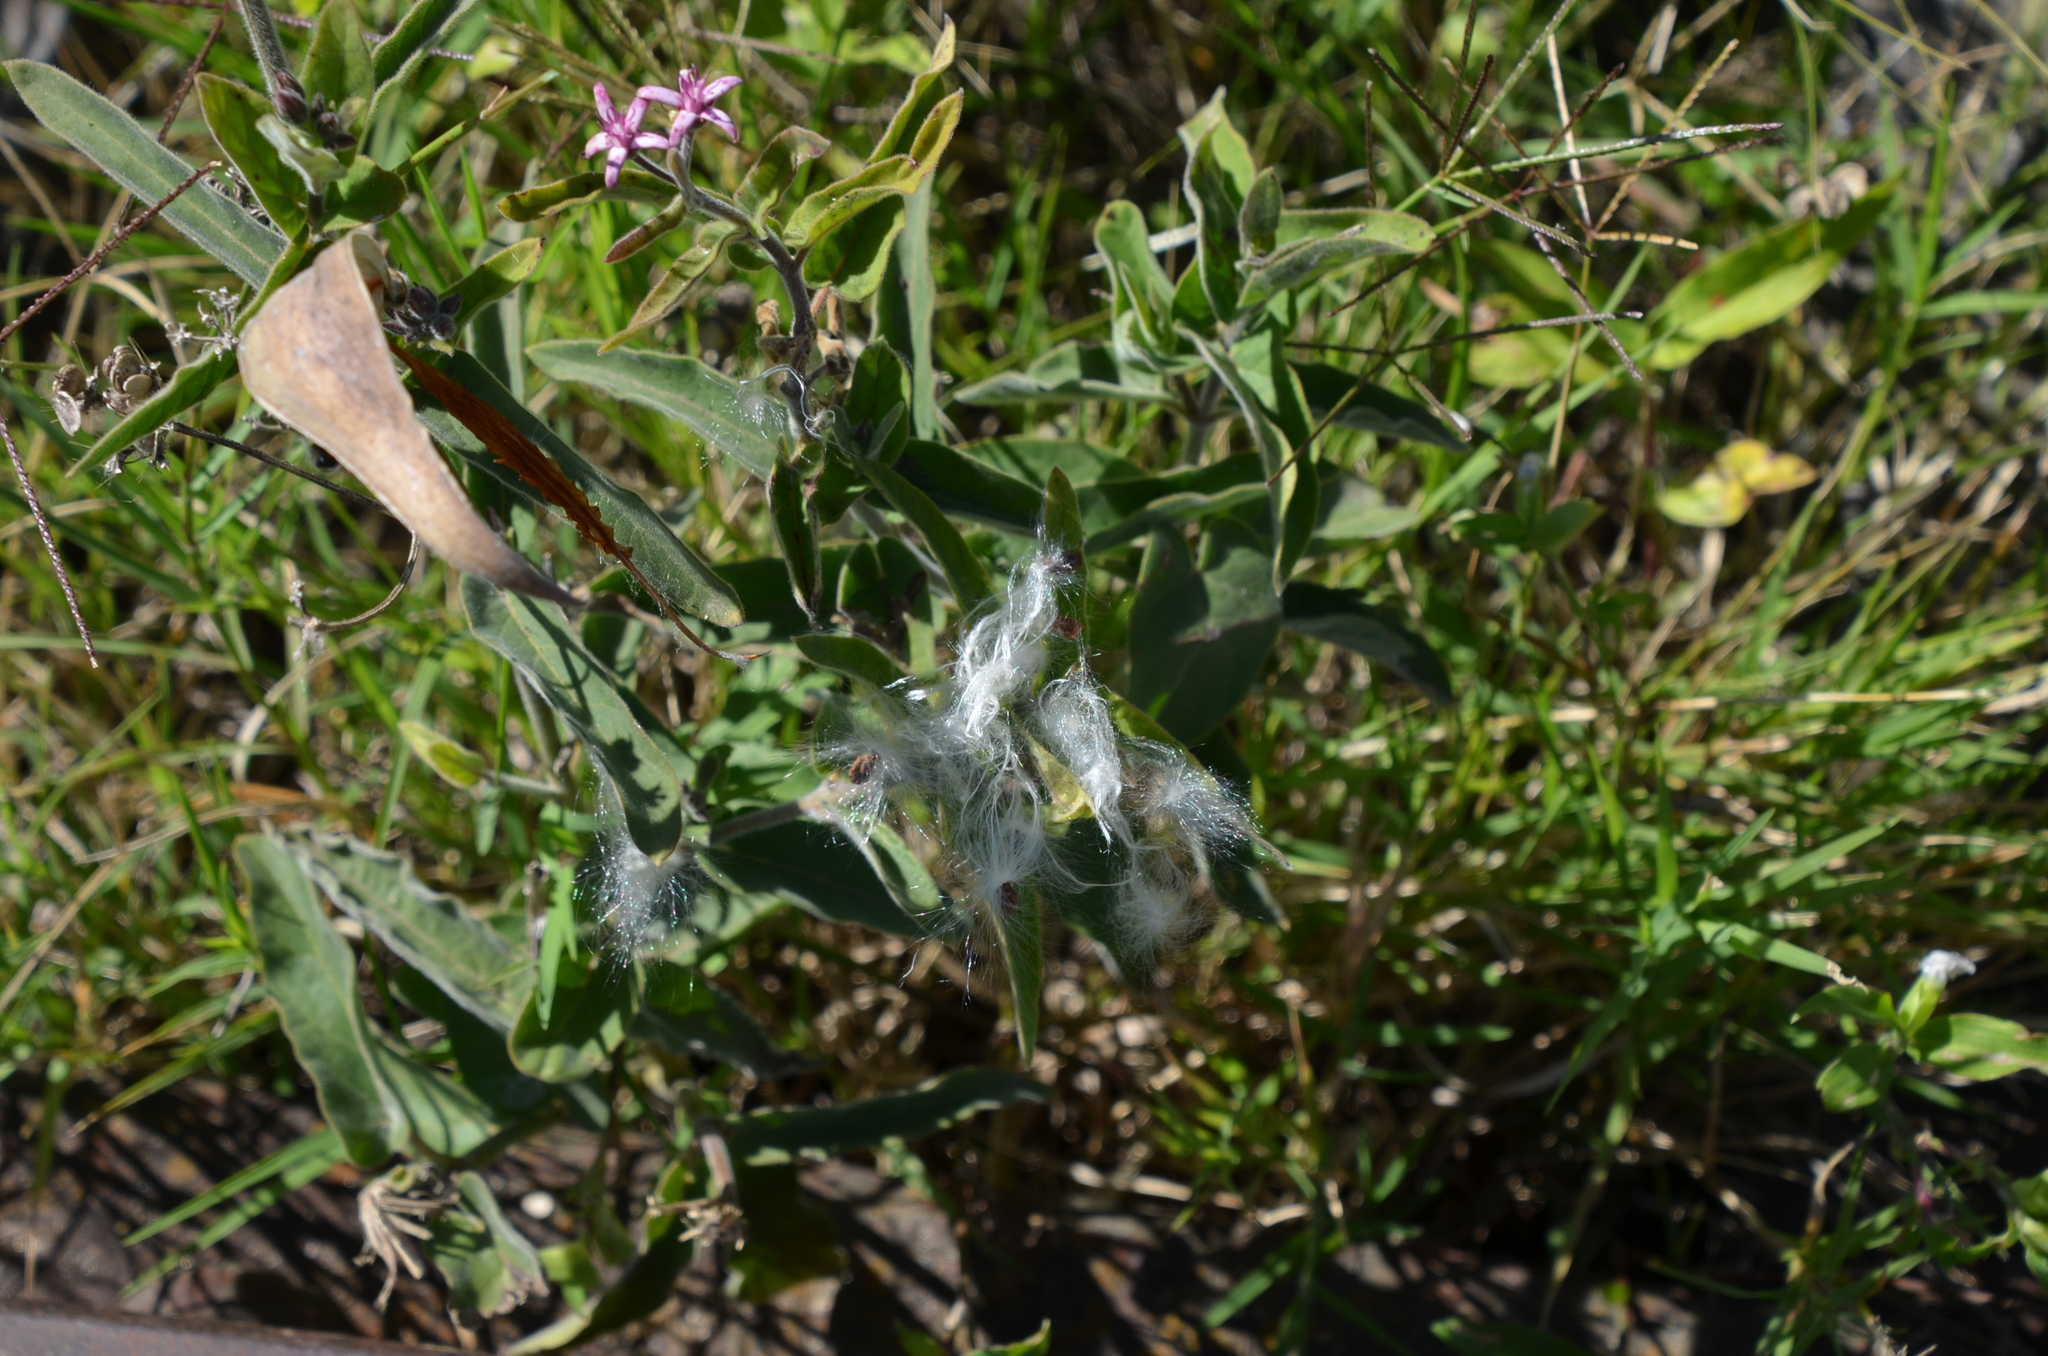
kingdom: Plantae
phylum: Tracheophyta
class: Magnoliopsida
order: Gentianales
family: Apocynaceae
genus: Oxypetalum
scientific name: Oxypetalum solanoides
